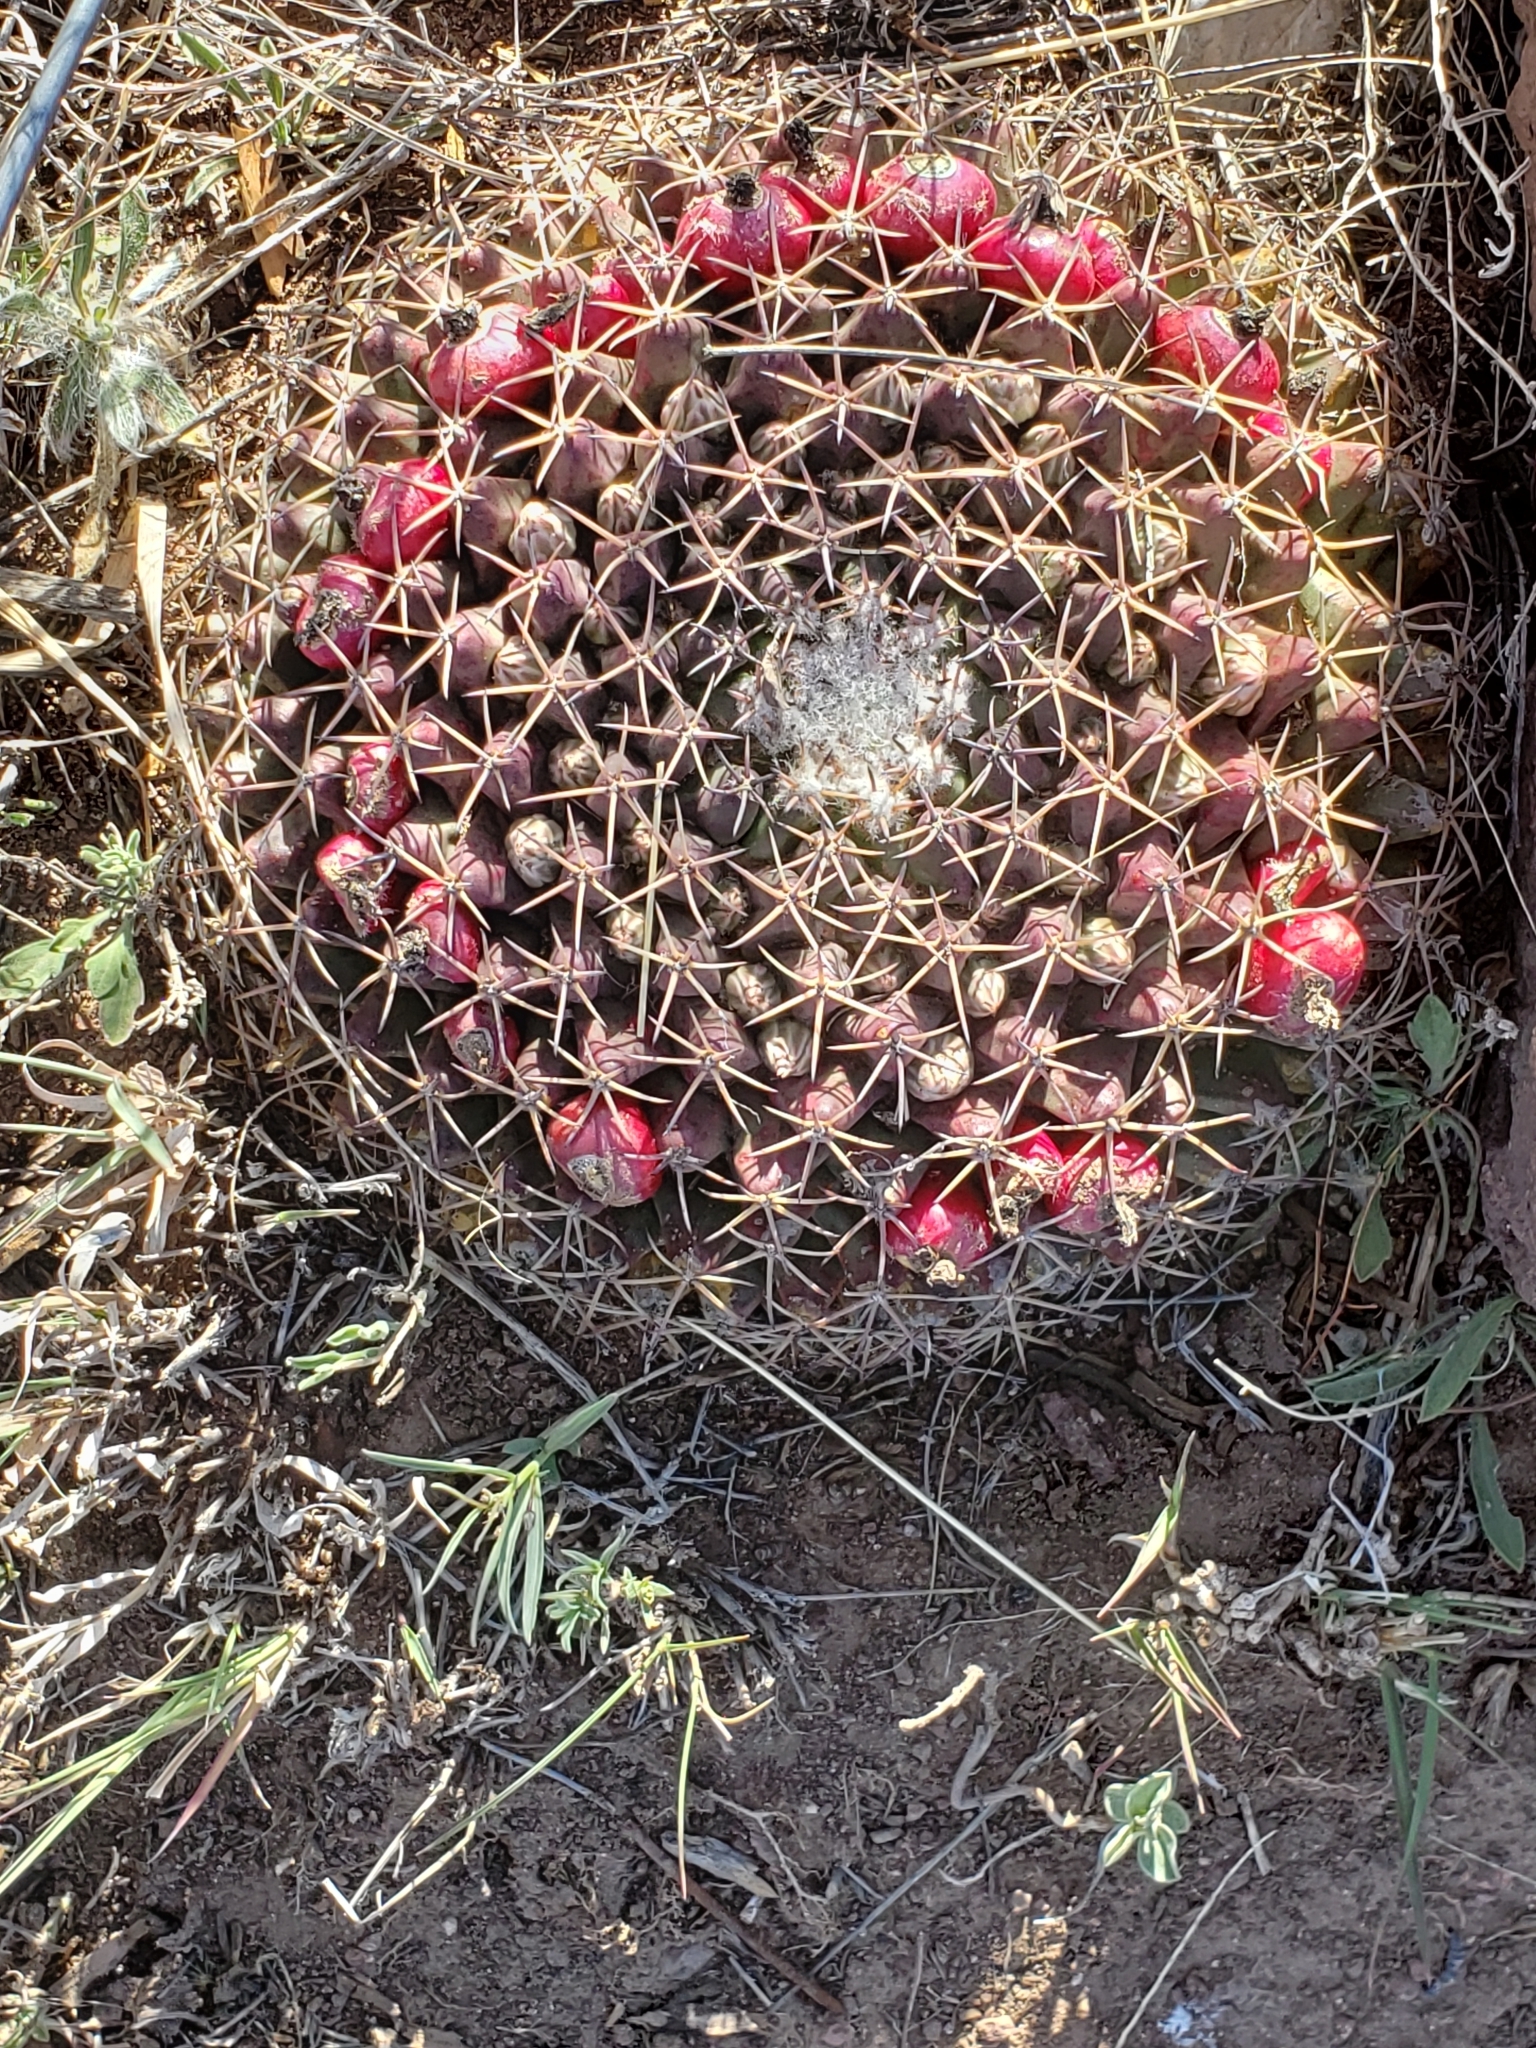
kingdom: Plantae
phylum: Tracheophyta
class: Magnoliopsida
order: Caryophyllales
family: Cactaceae
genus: Mammillaria
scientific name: Mammillaria heyderi
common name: Little nipple cactus
